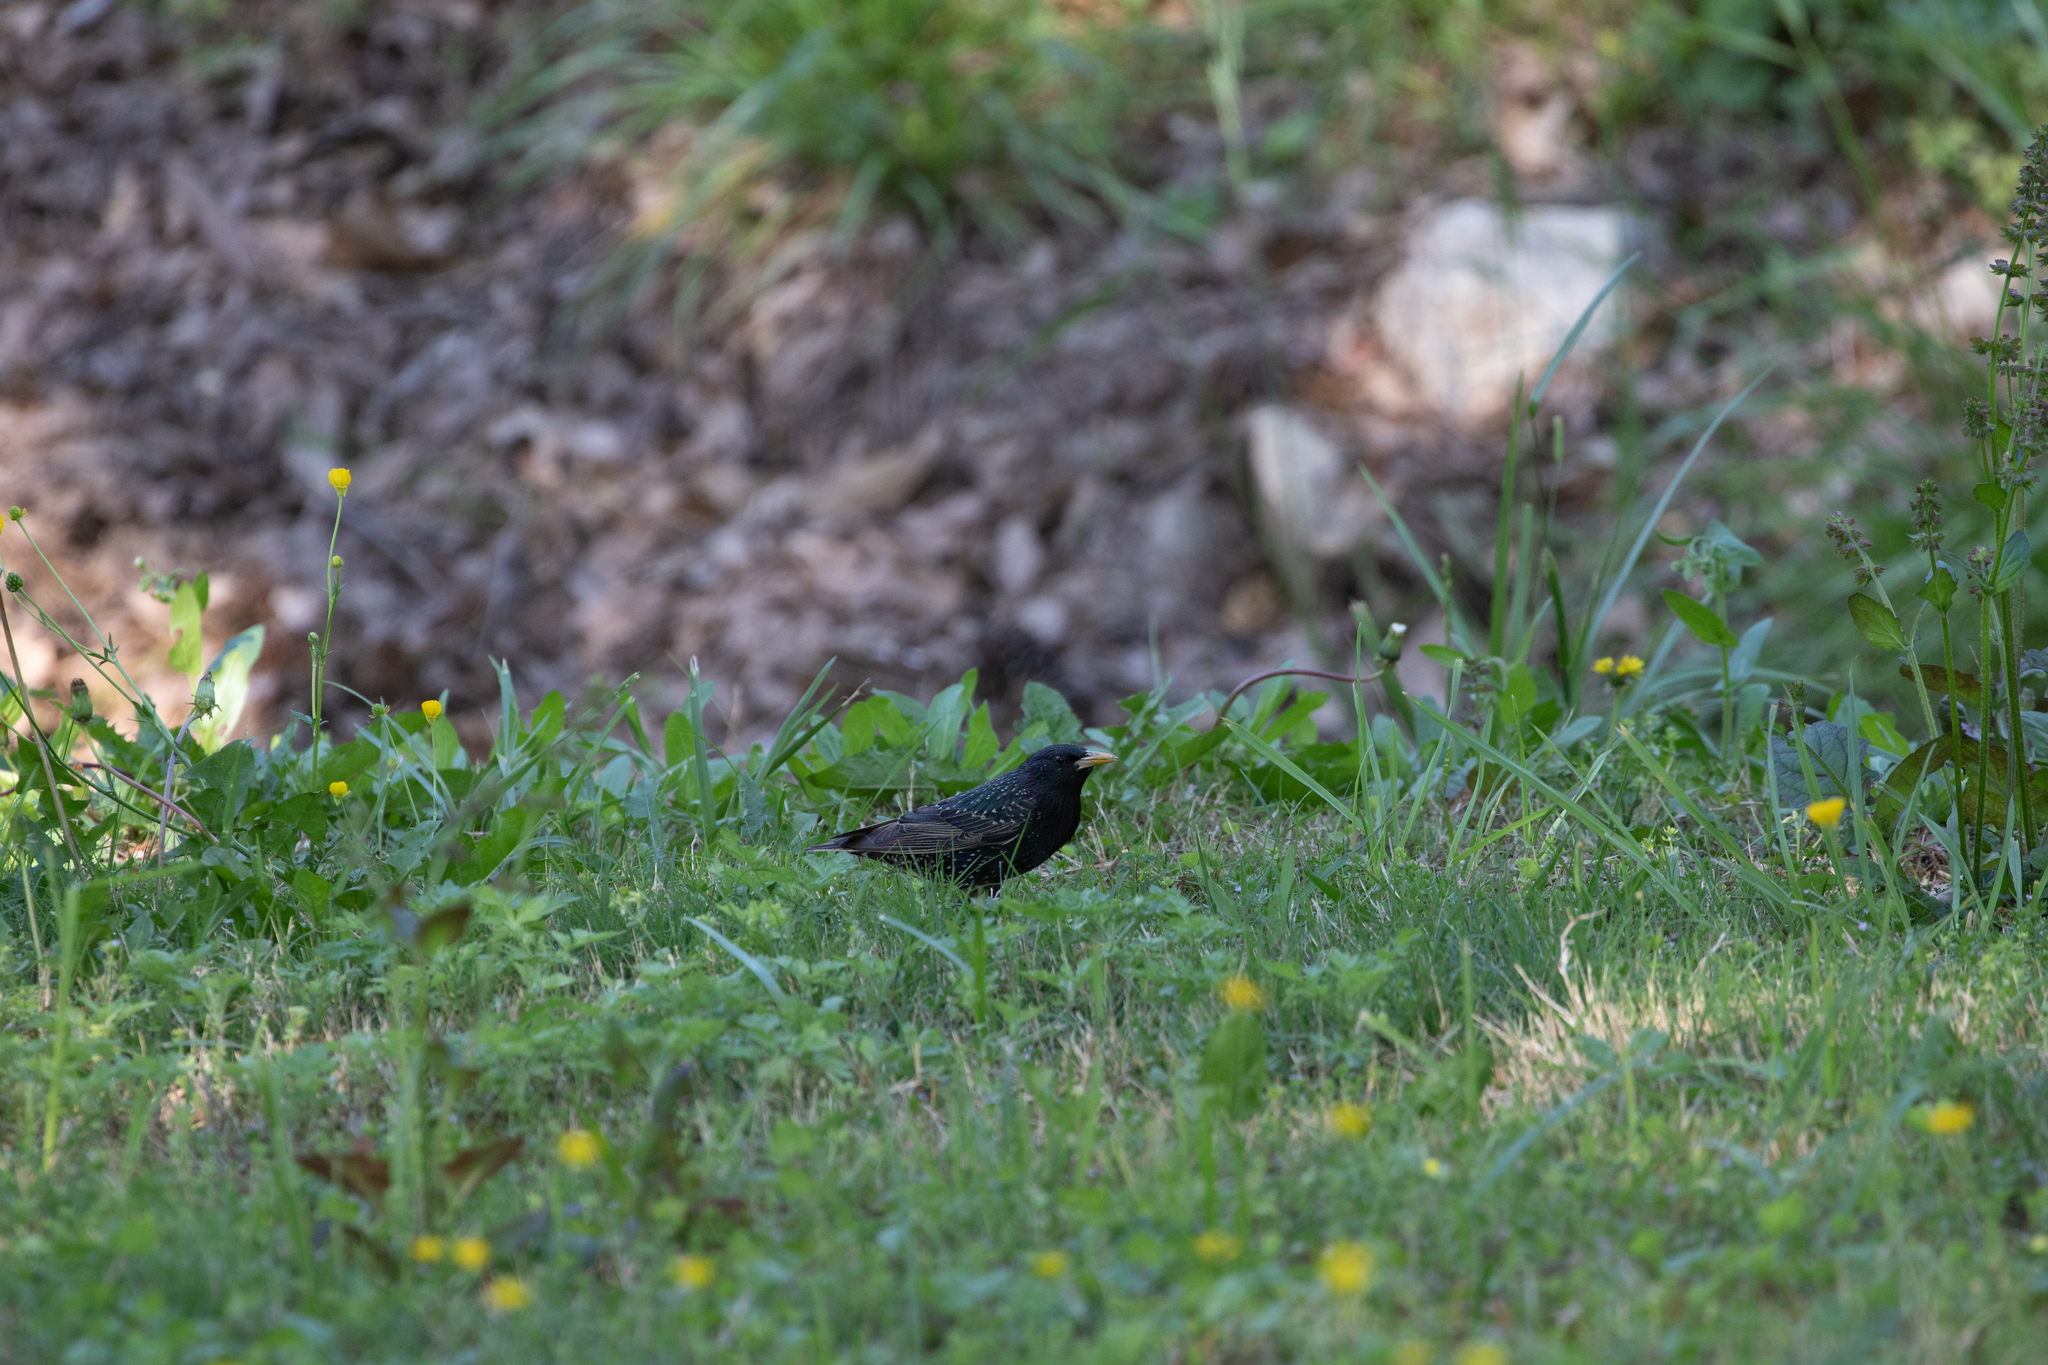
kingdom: Animalia
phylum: Chordata
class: Aves
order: Passeriformes
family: Sturnidae
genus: Sturnus
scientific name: Sturnus vulgaris
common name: Common starling
